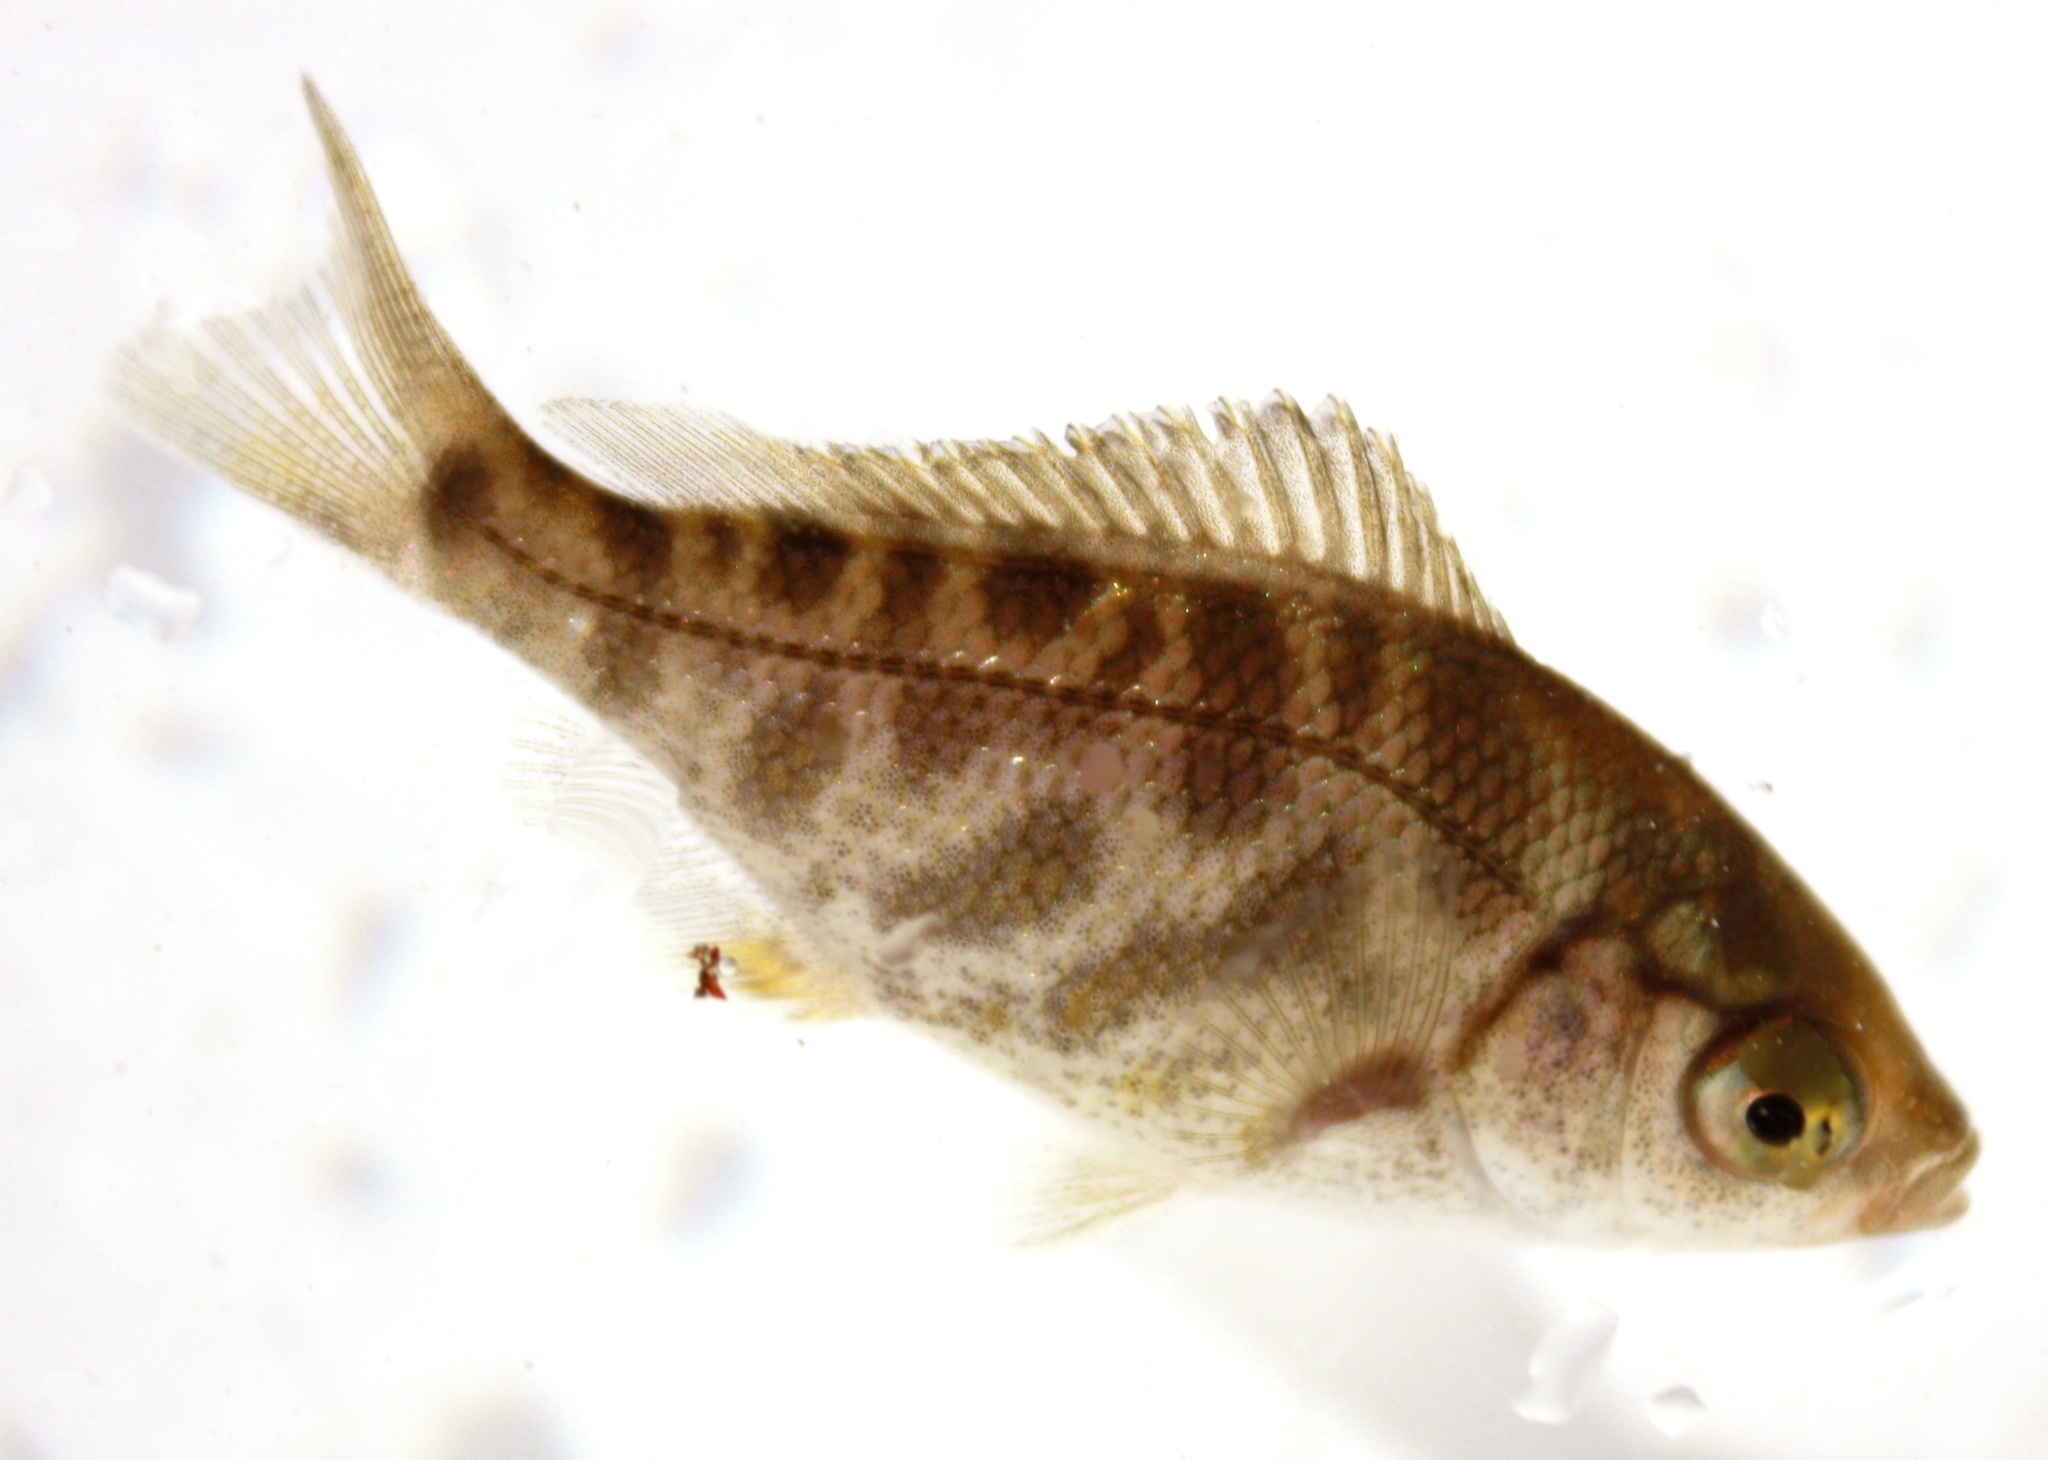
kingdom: Animalia
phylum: Chordata
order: Perciformes
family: Embiotocidae
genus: Hysterocarpus
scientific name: Hysterocarpus traskii
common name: Russian river tule perch
